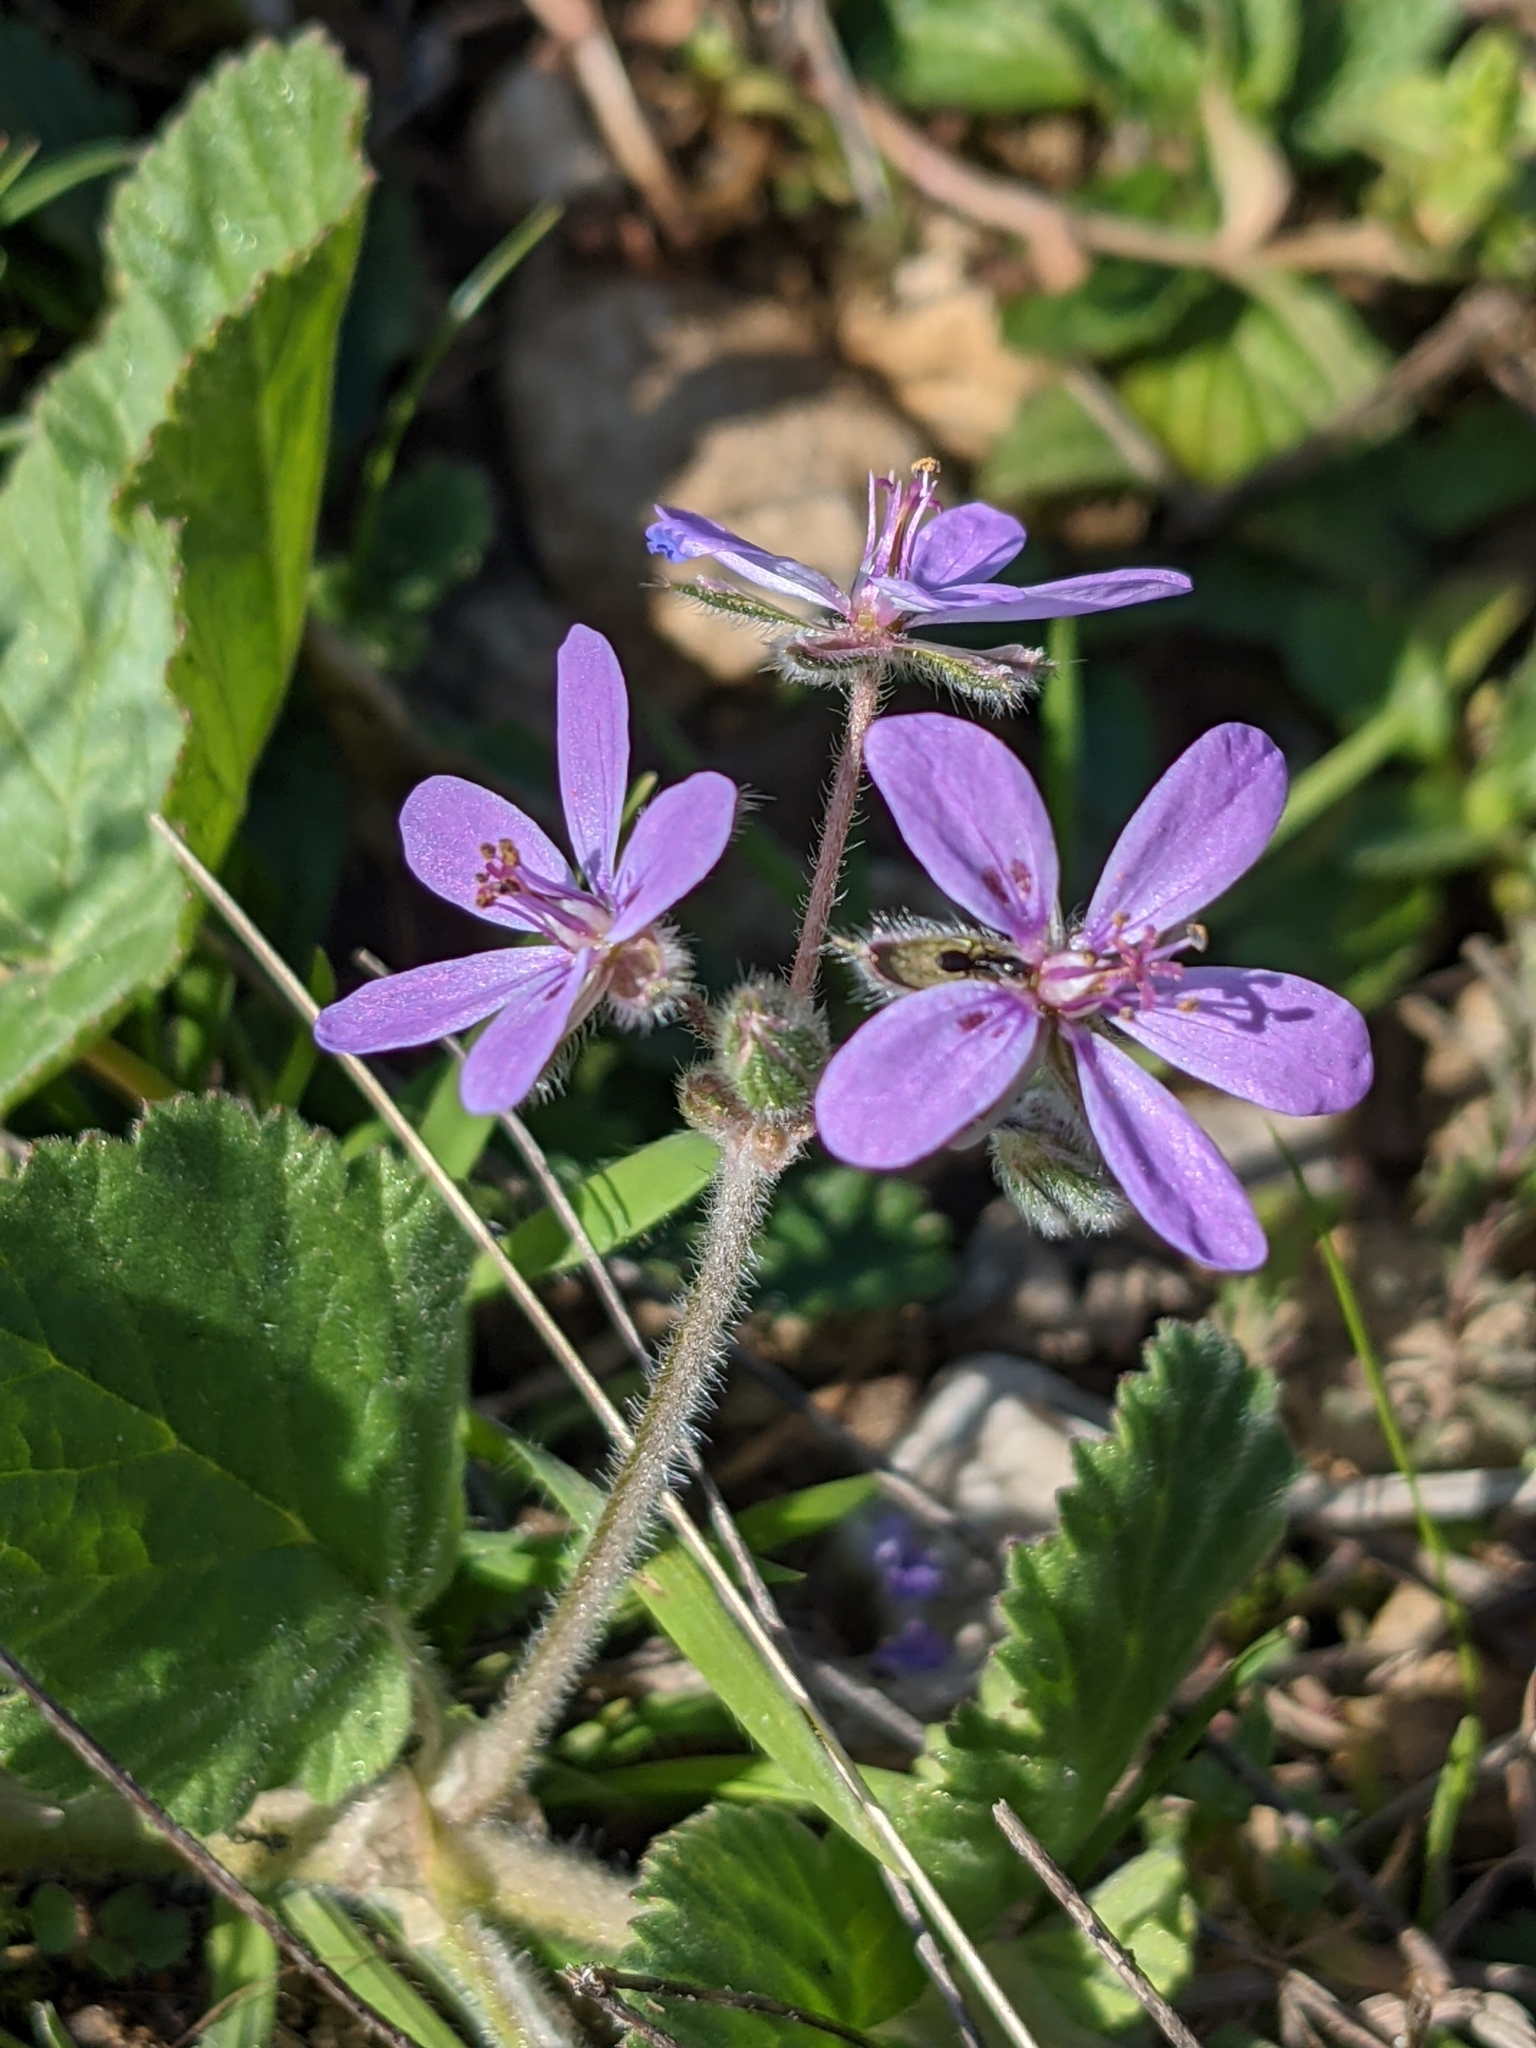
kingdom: Plantae
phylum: Tracheophyta
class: Magnoliopsida
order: Geraniales
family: Geraniaceae
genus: Erodium
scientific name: Erodium malacoides
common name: Soft stork's-bill
